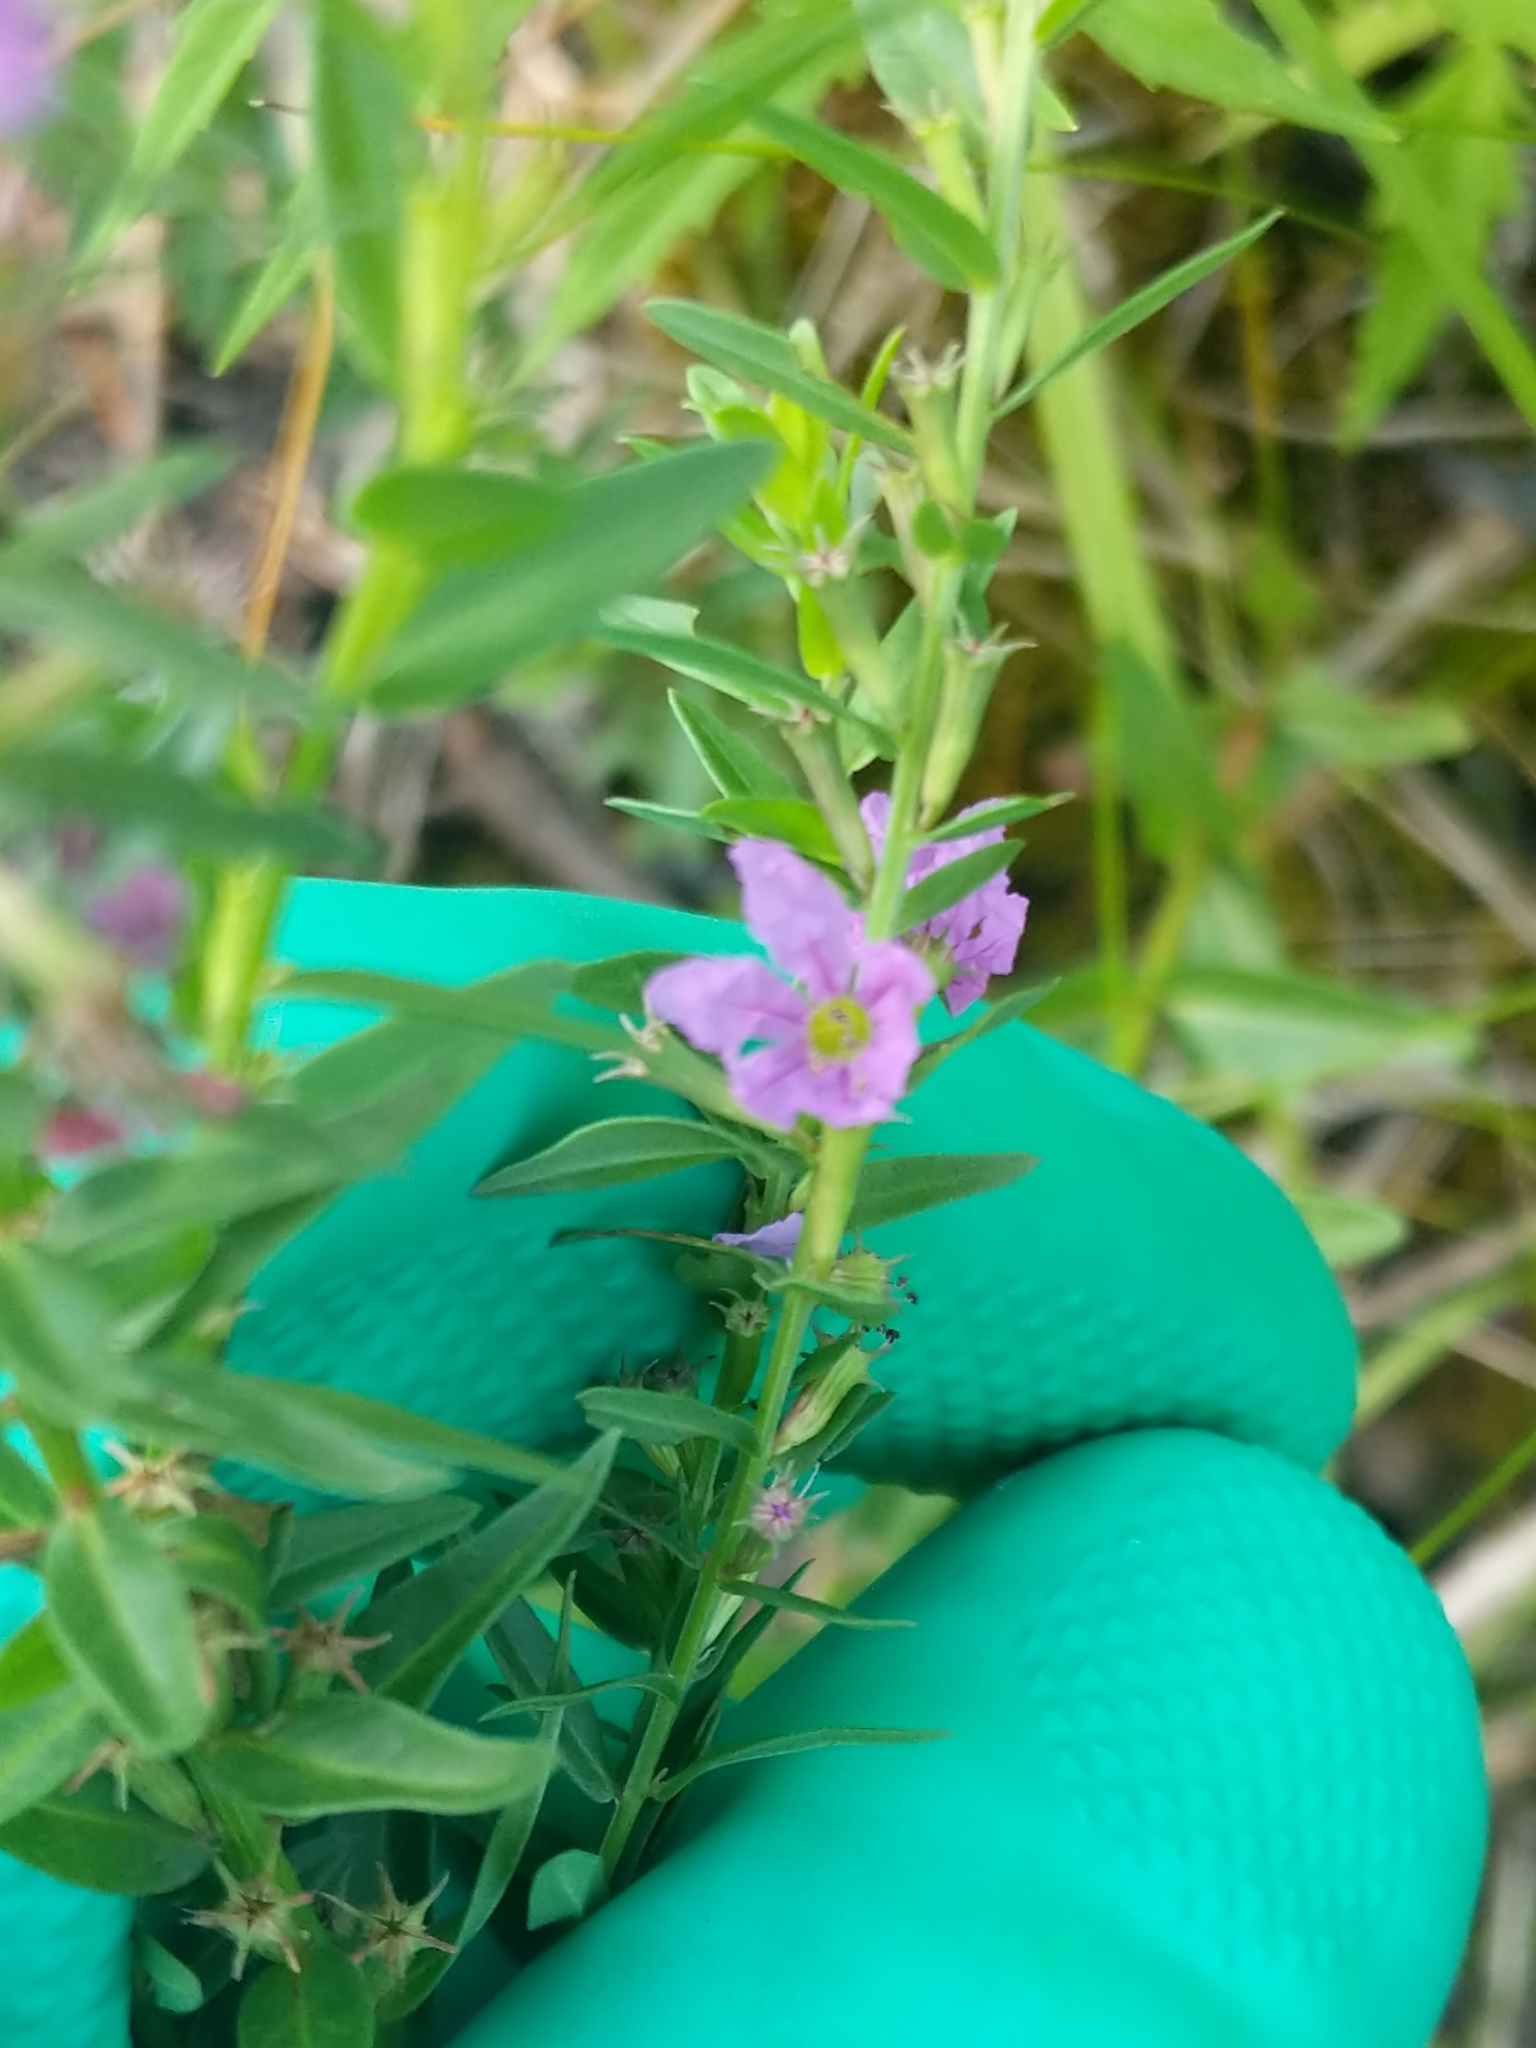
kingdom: Plantae
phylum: Tracheophyta
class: Magnoliopsida
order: Myrtales
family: Lythraceae
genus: Lythrum
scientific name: Lythrum alatum
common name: Winged loosestrife
